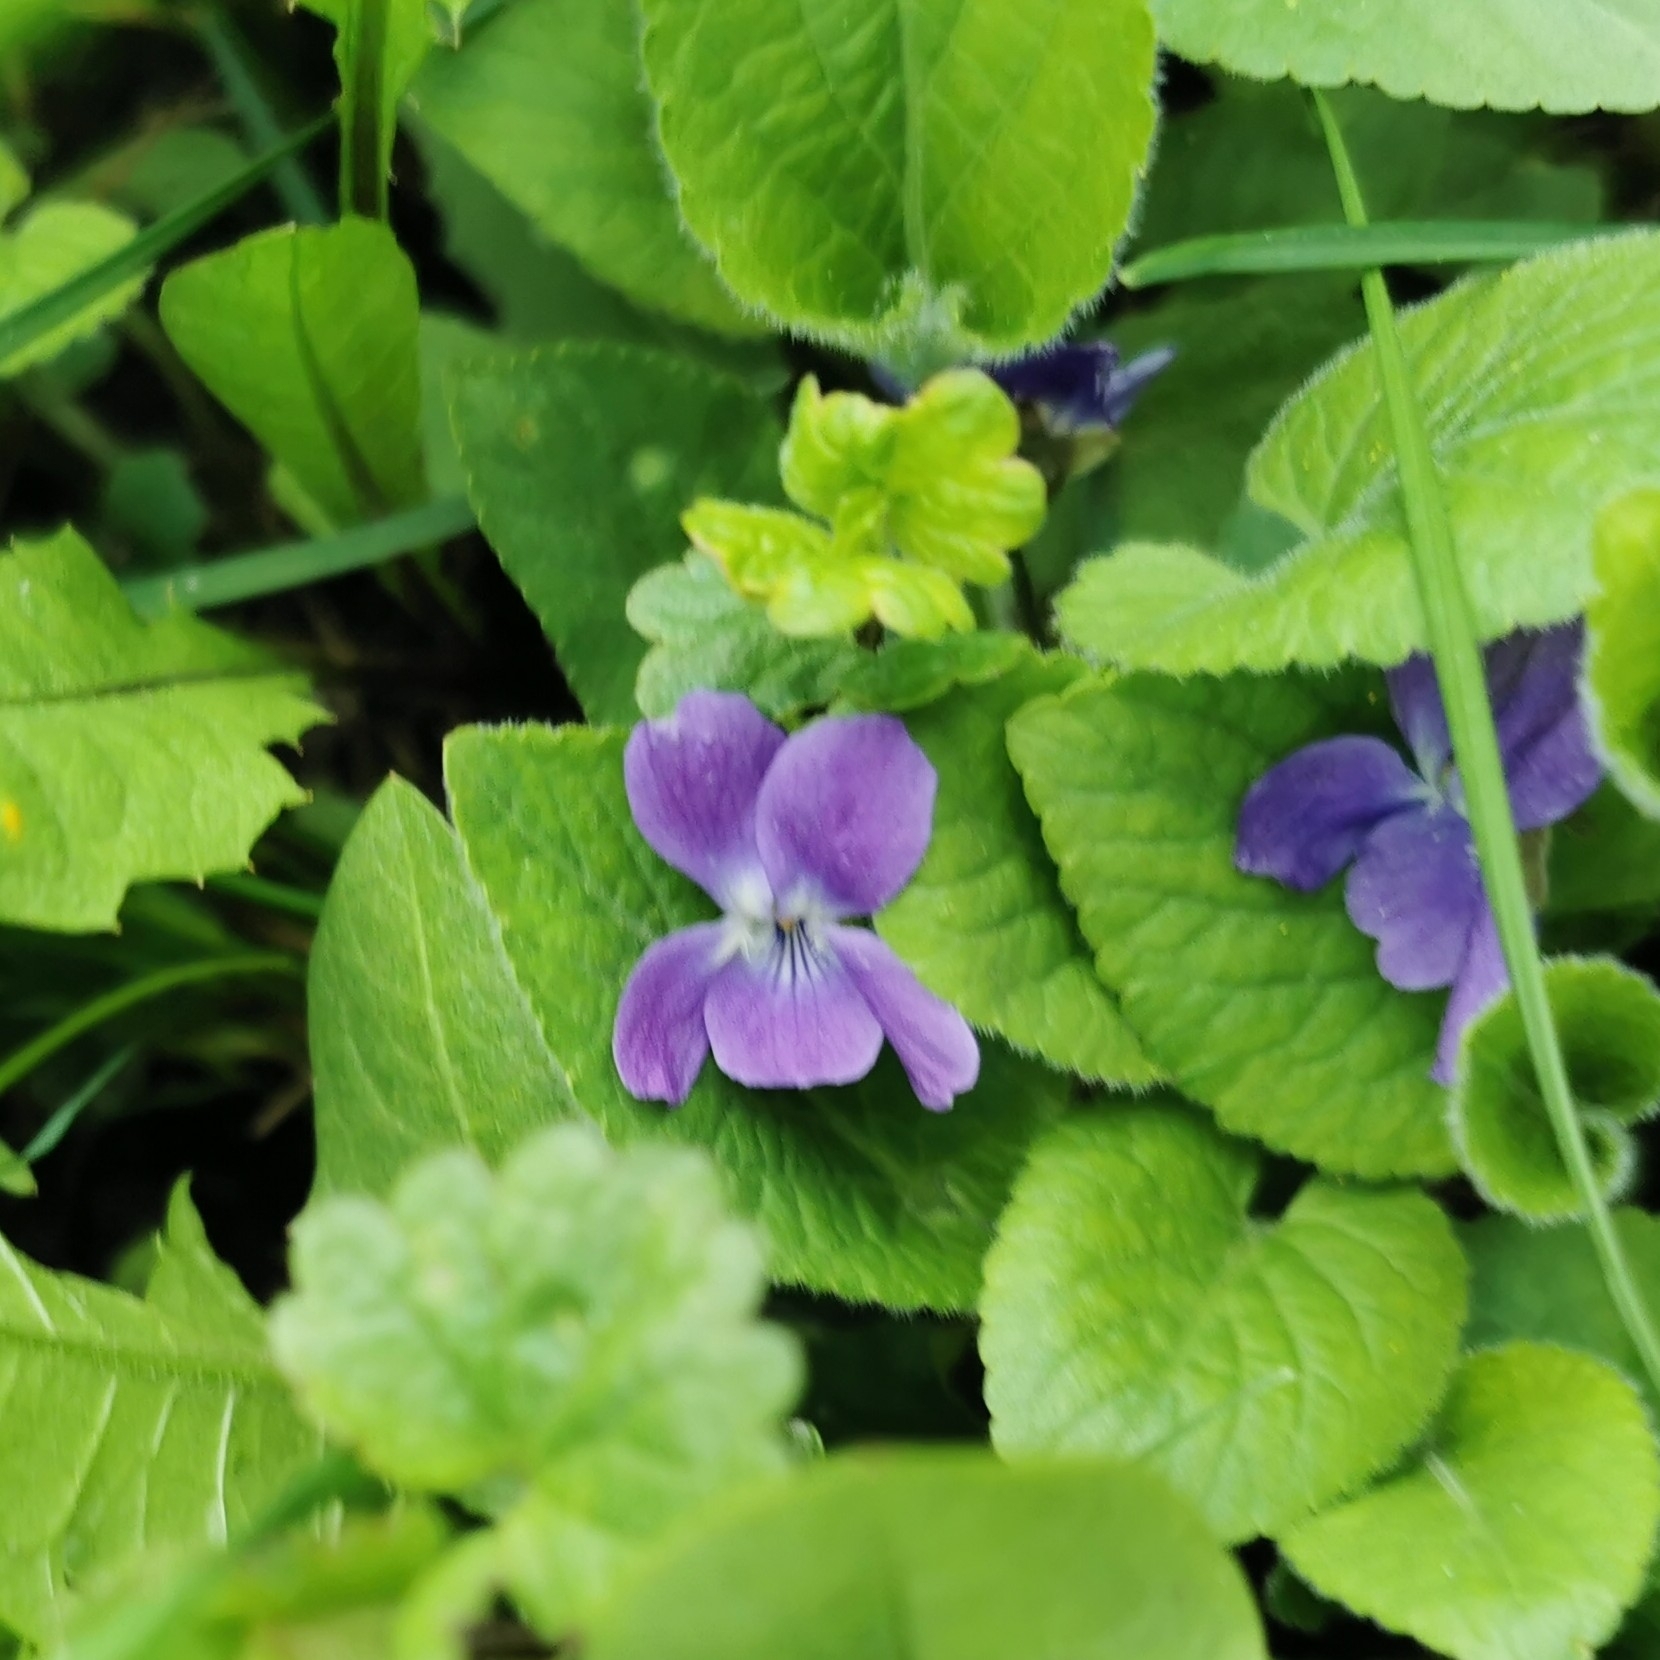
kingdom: Plantae
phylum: Tracheophyta
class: Magnoliopsida
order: Malpighiales
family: Violaceae
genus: Viola
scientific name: Viola hirta
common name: Hairy violet
